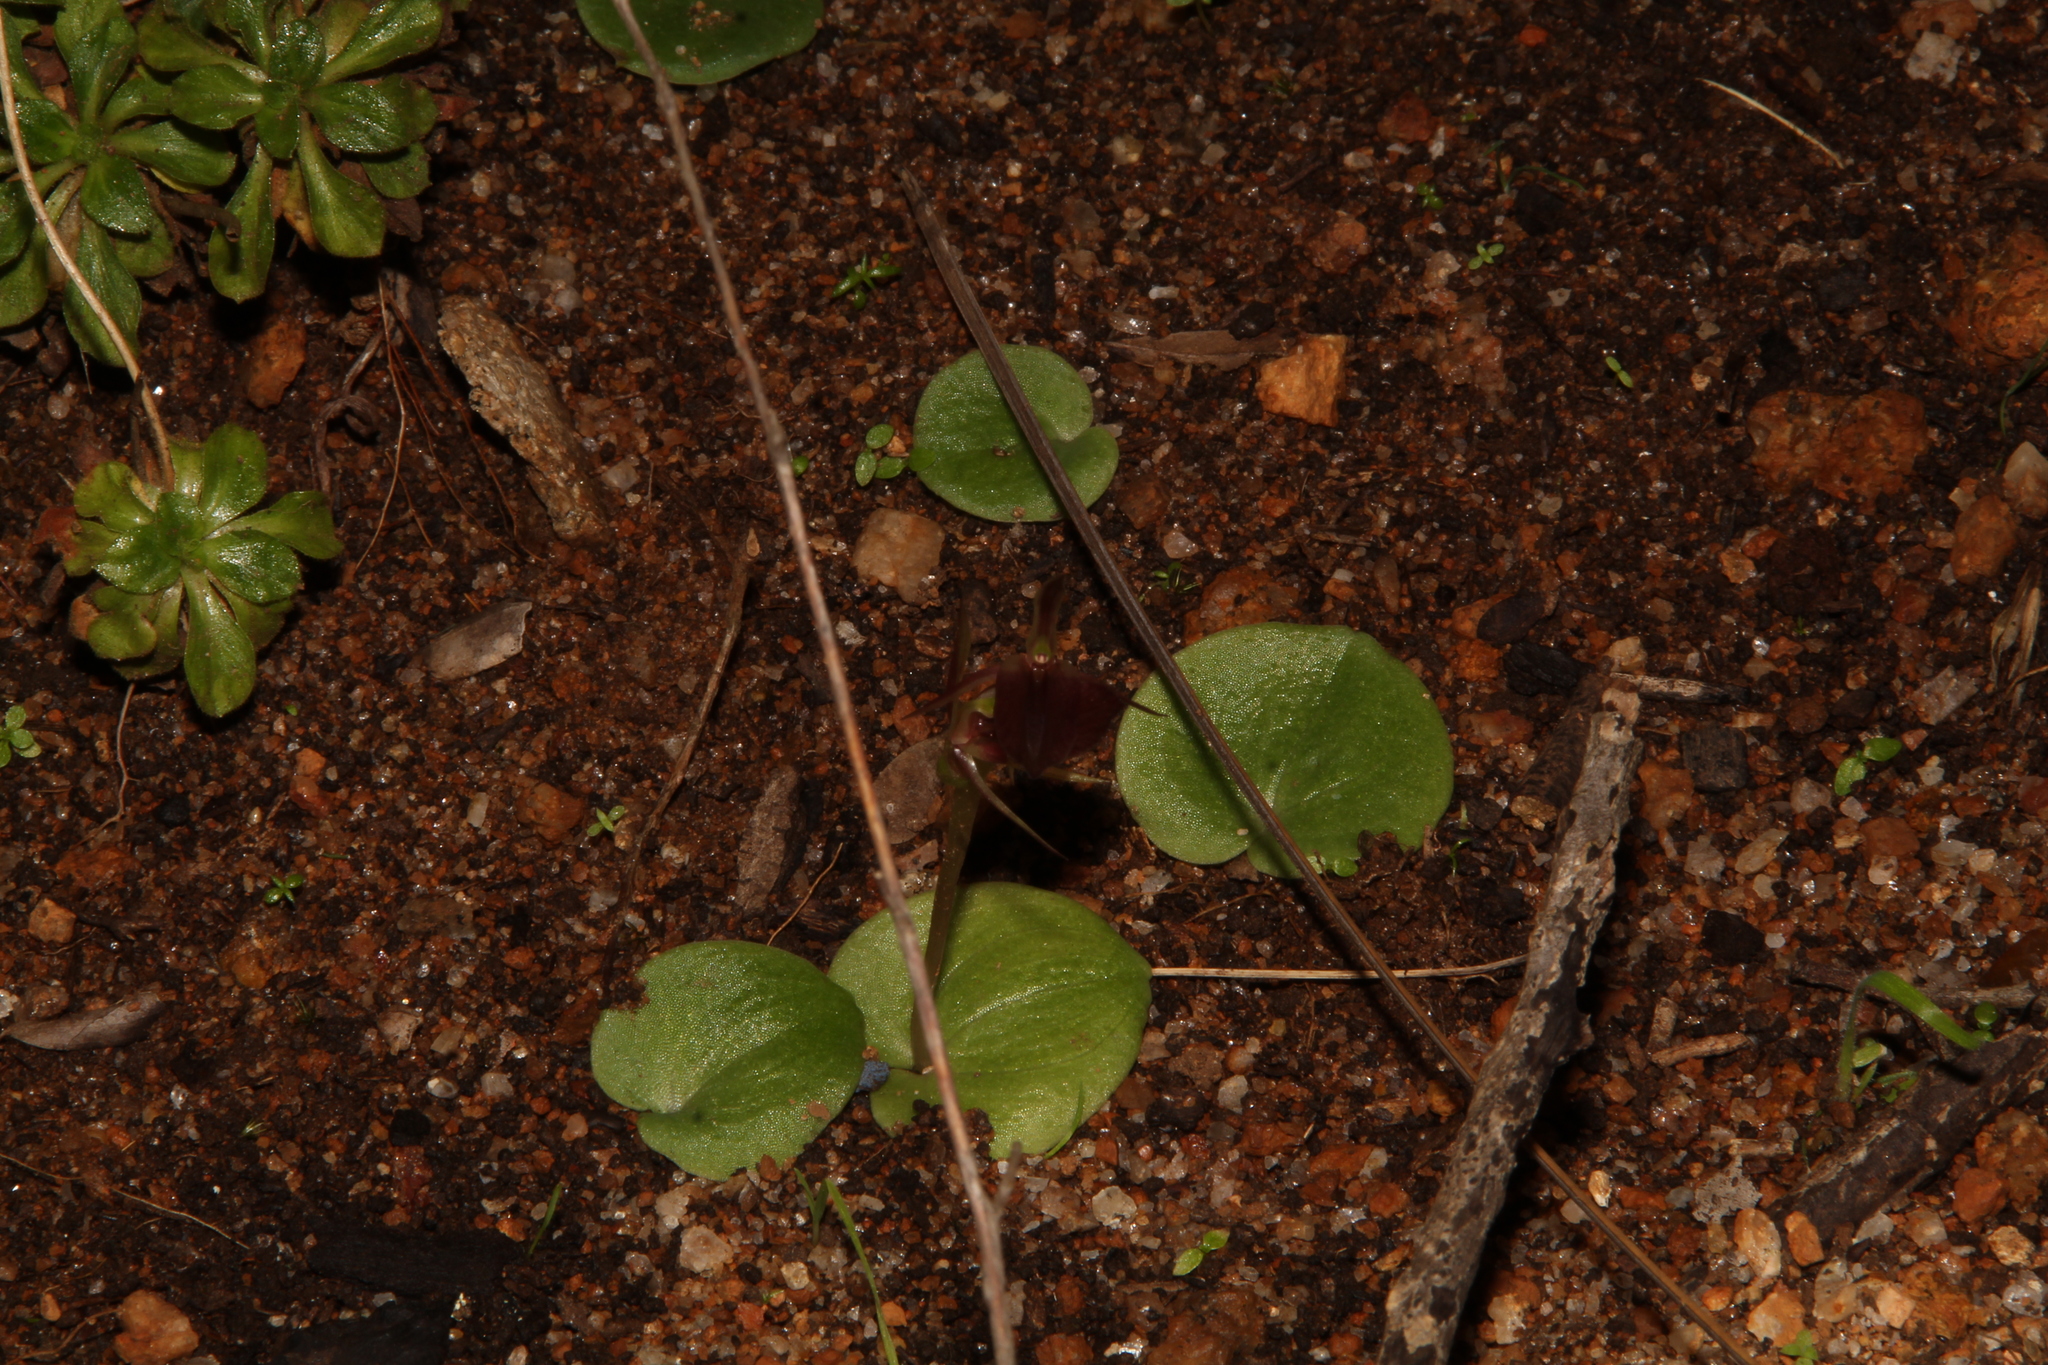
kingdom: Plantae
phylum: Tracheophyta
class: Liliopsida
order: Asparagales
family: Orchidaceae
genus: Cyrtostylis
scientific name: Cyrtostylis robusta
